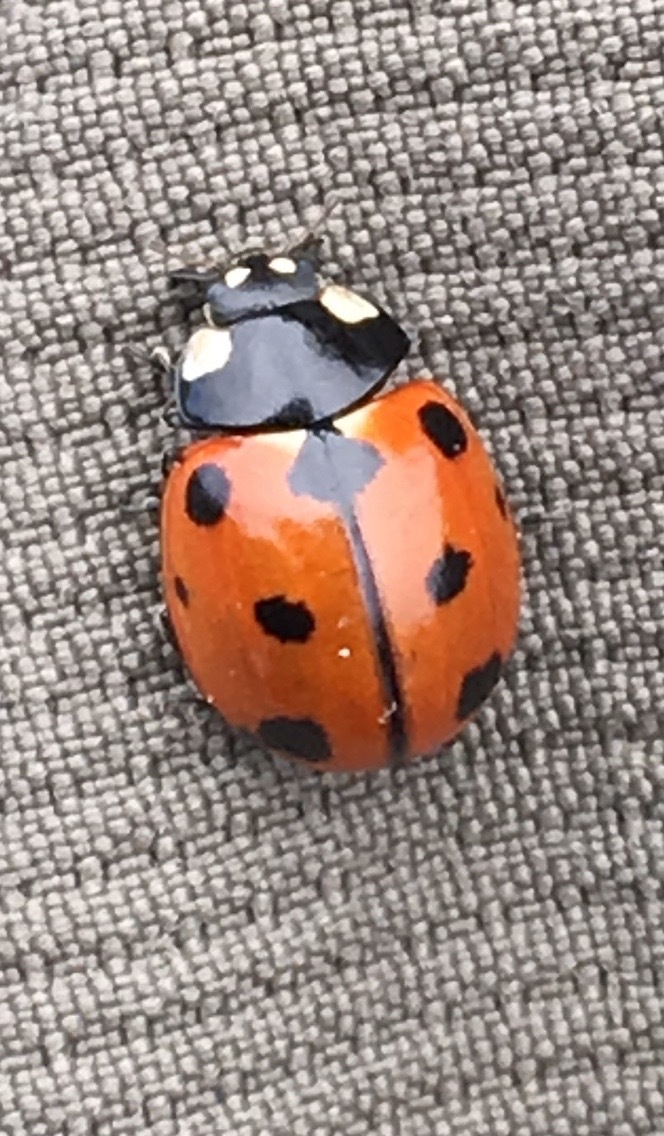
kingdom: Animalia
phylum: Arthropoda
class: Insecta
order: Coleoptera
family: Coccinellidae
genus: Coccinella
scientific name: Coccinella californica
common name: Lady beetle
